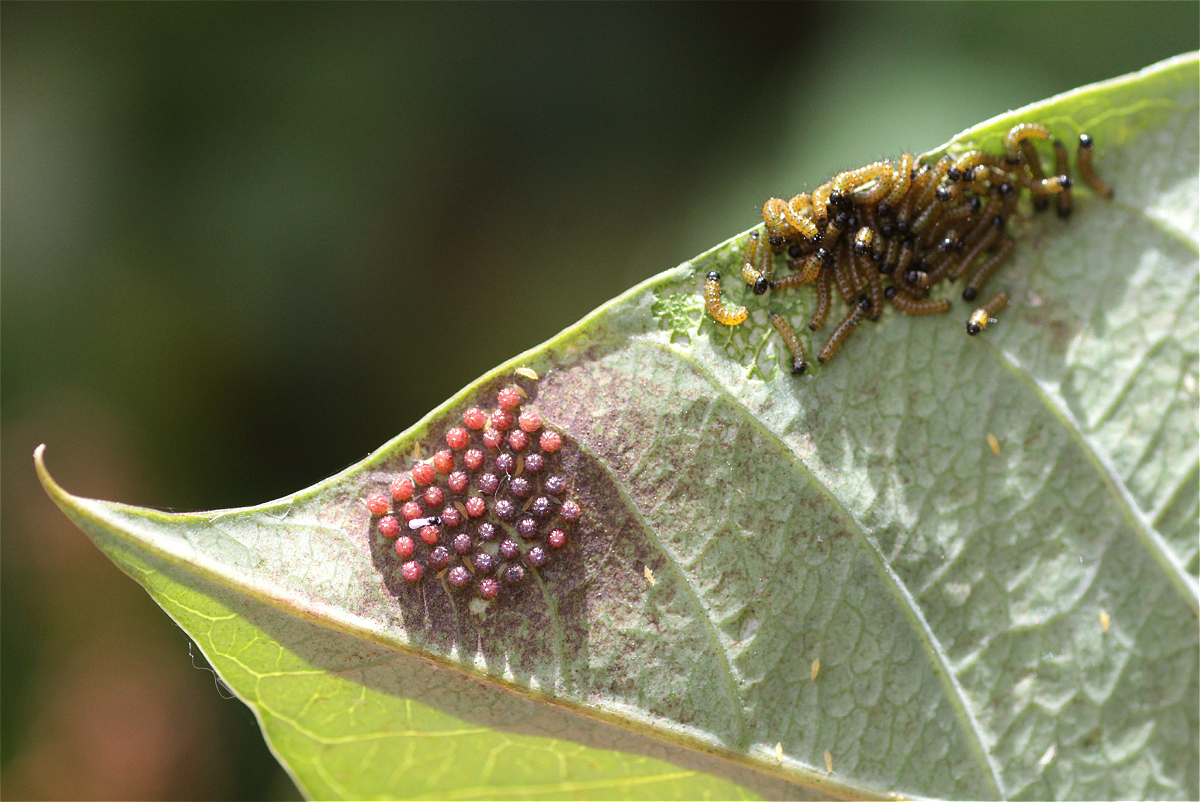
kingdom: Animalia
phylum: Arthropoda
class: Insecta
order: Lepidoptera
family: Nymphalidae
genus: Dione
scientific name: Dione juno
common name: Juno silverspot
